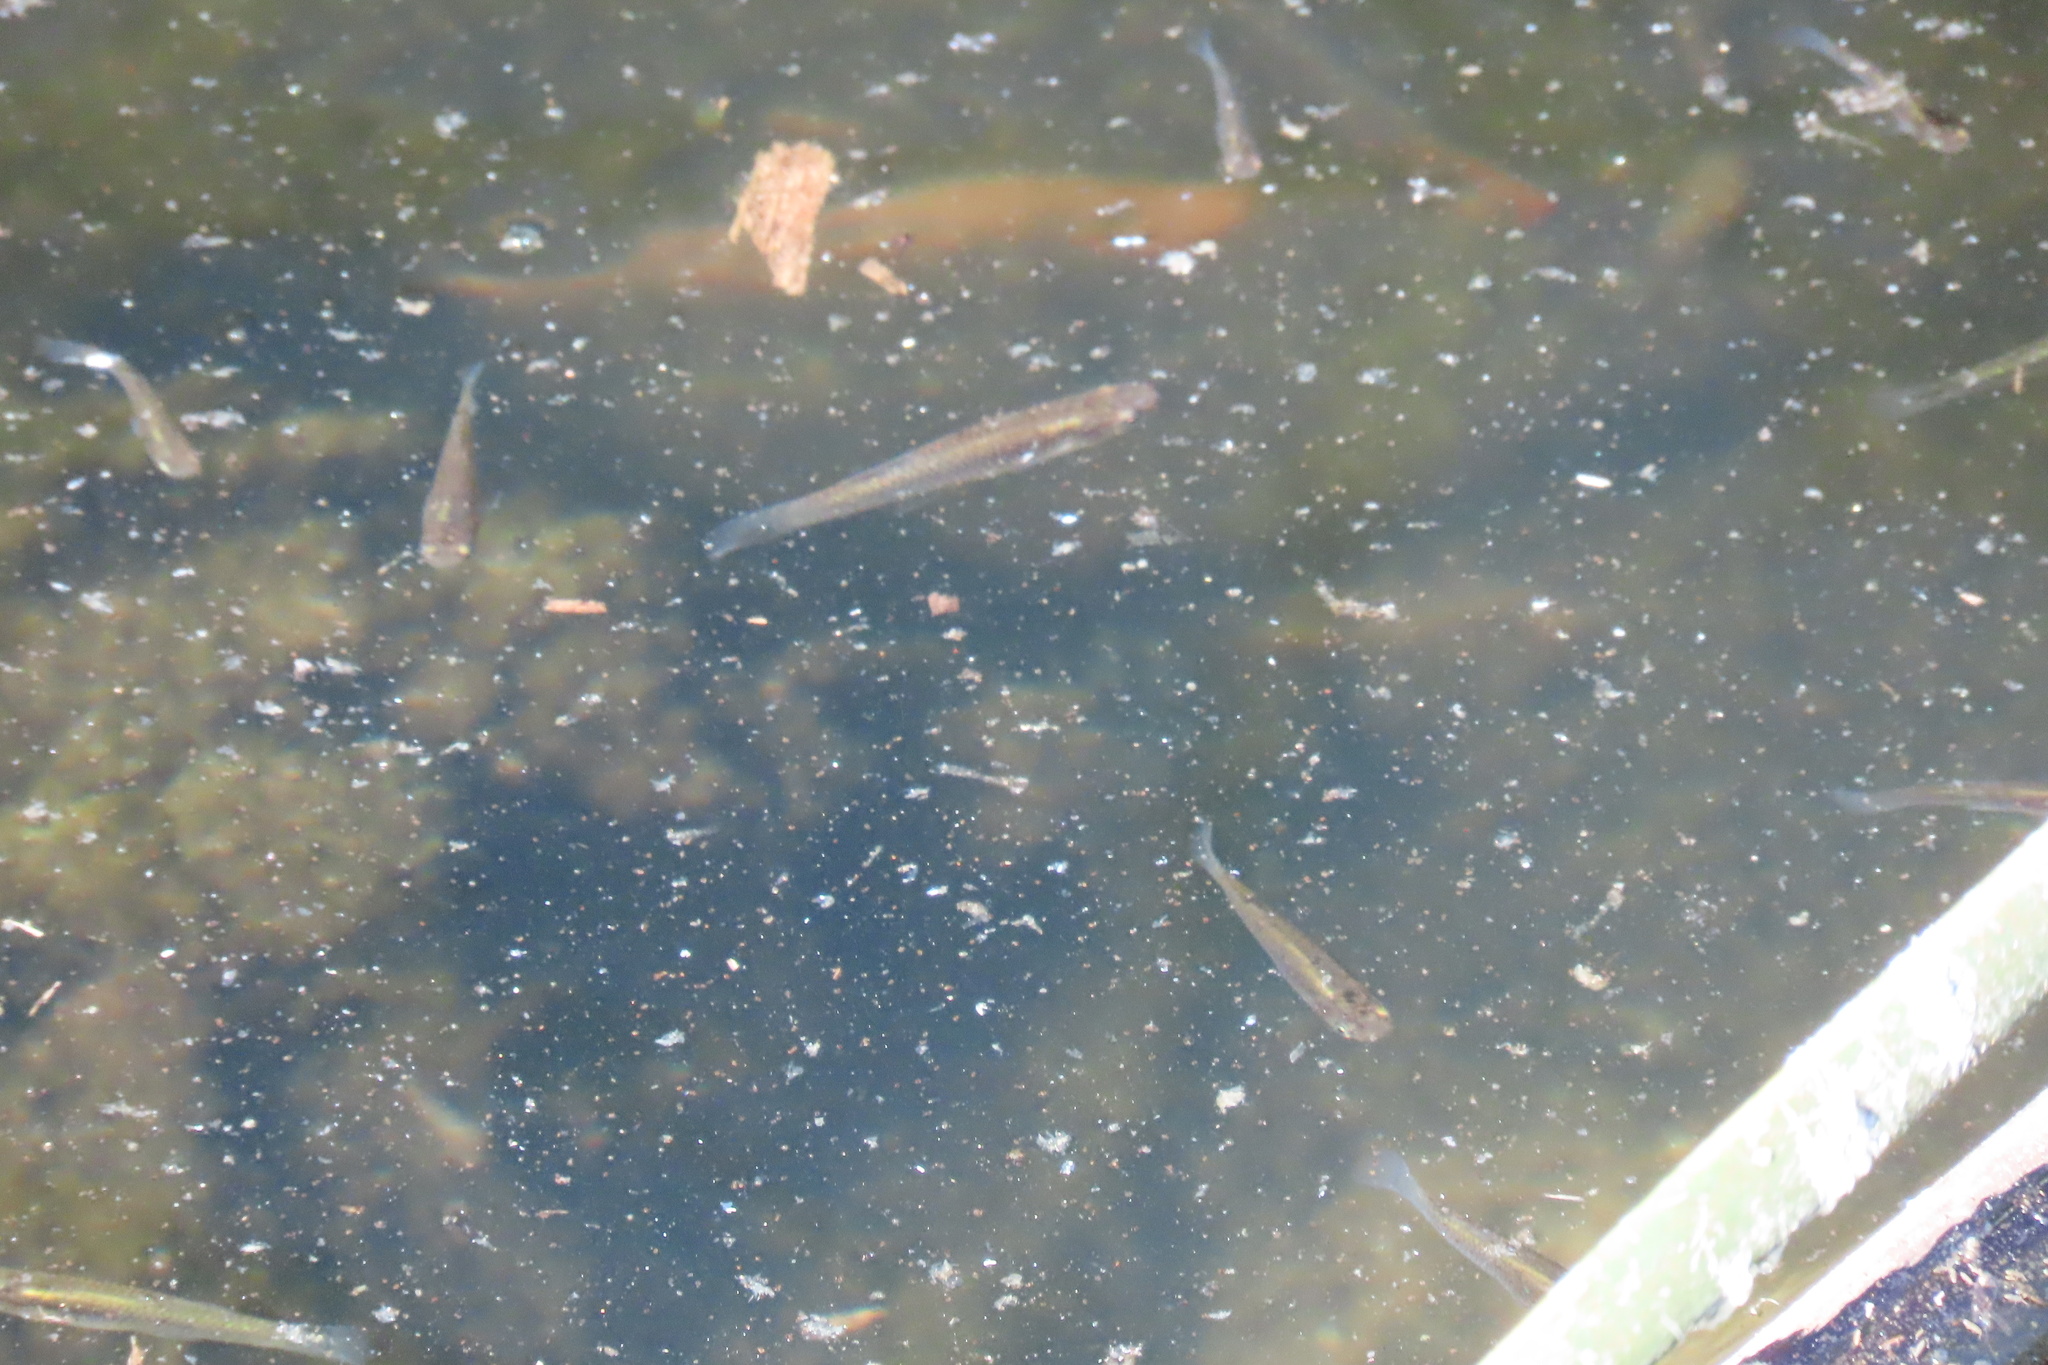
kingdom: Animalia
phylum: Chordata
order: Cyprinodontiformes
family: Poeciliidae
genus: Gambusia
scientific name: Gambusia affinis
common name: Mosquitofish
